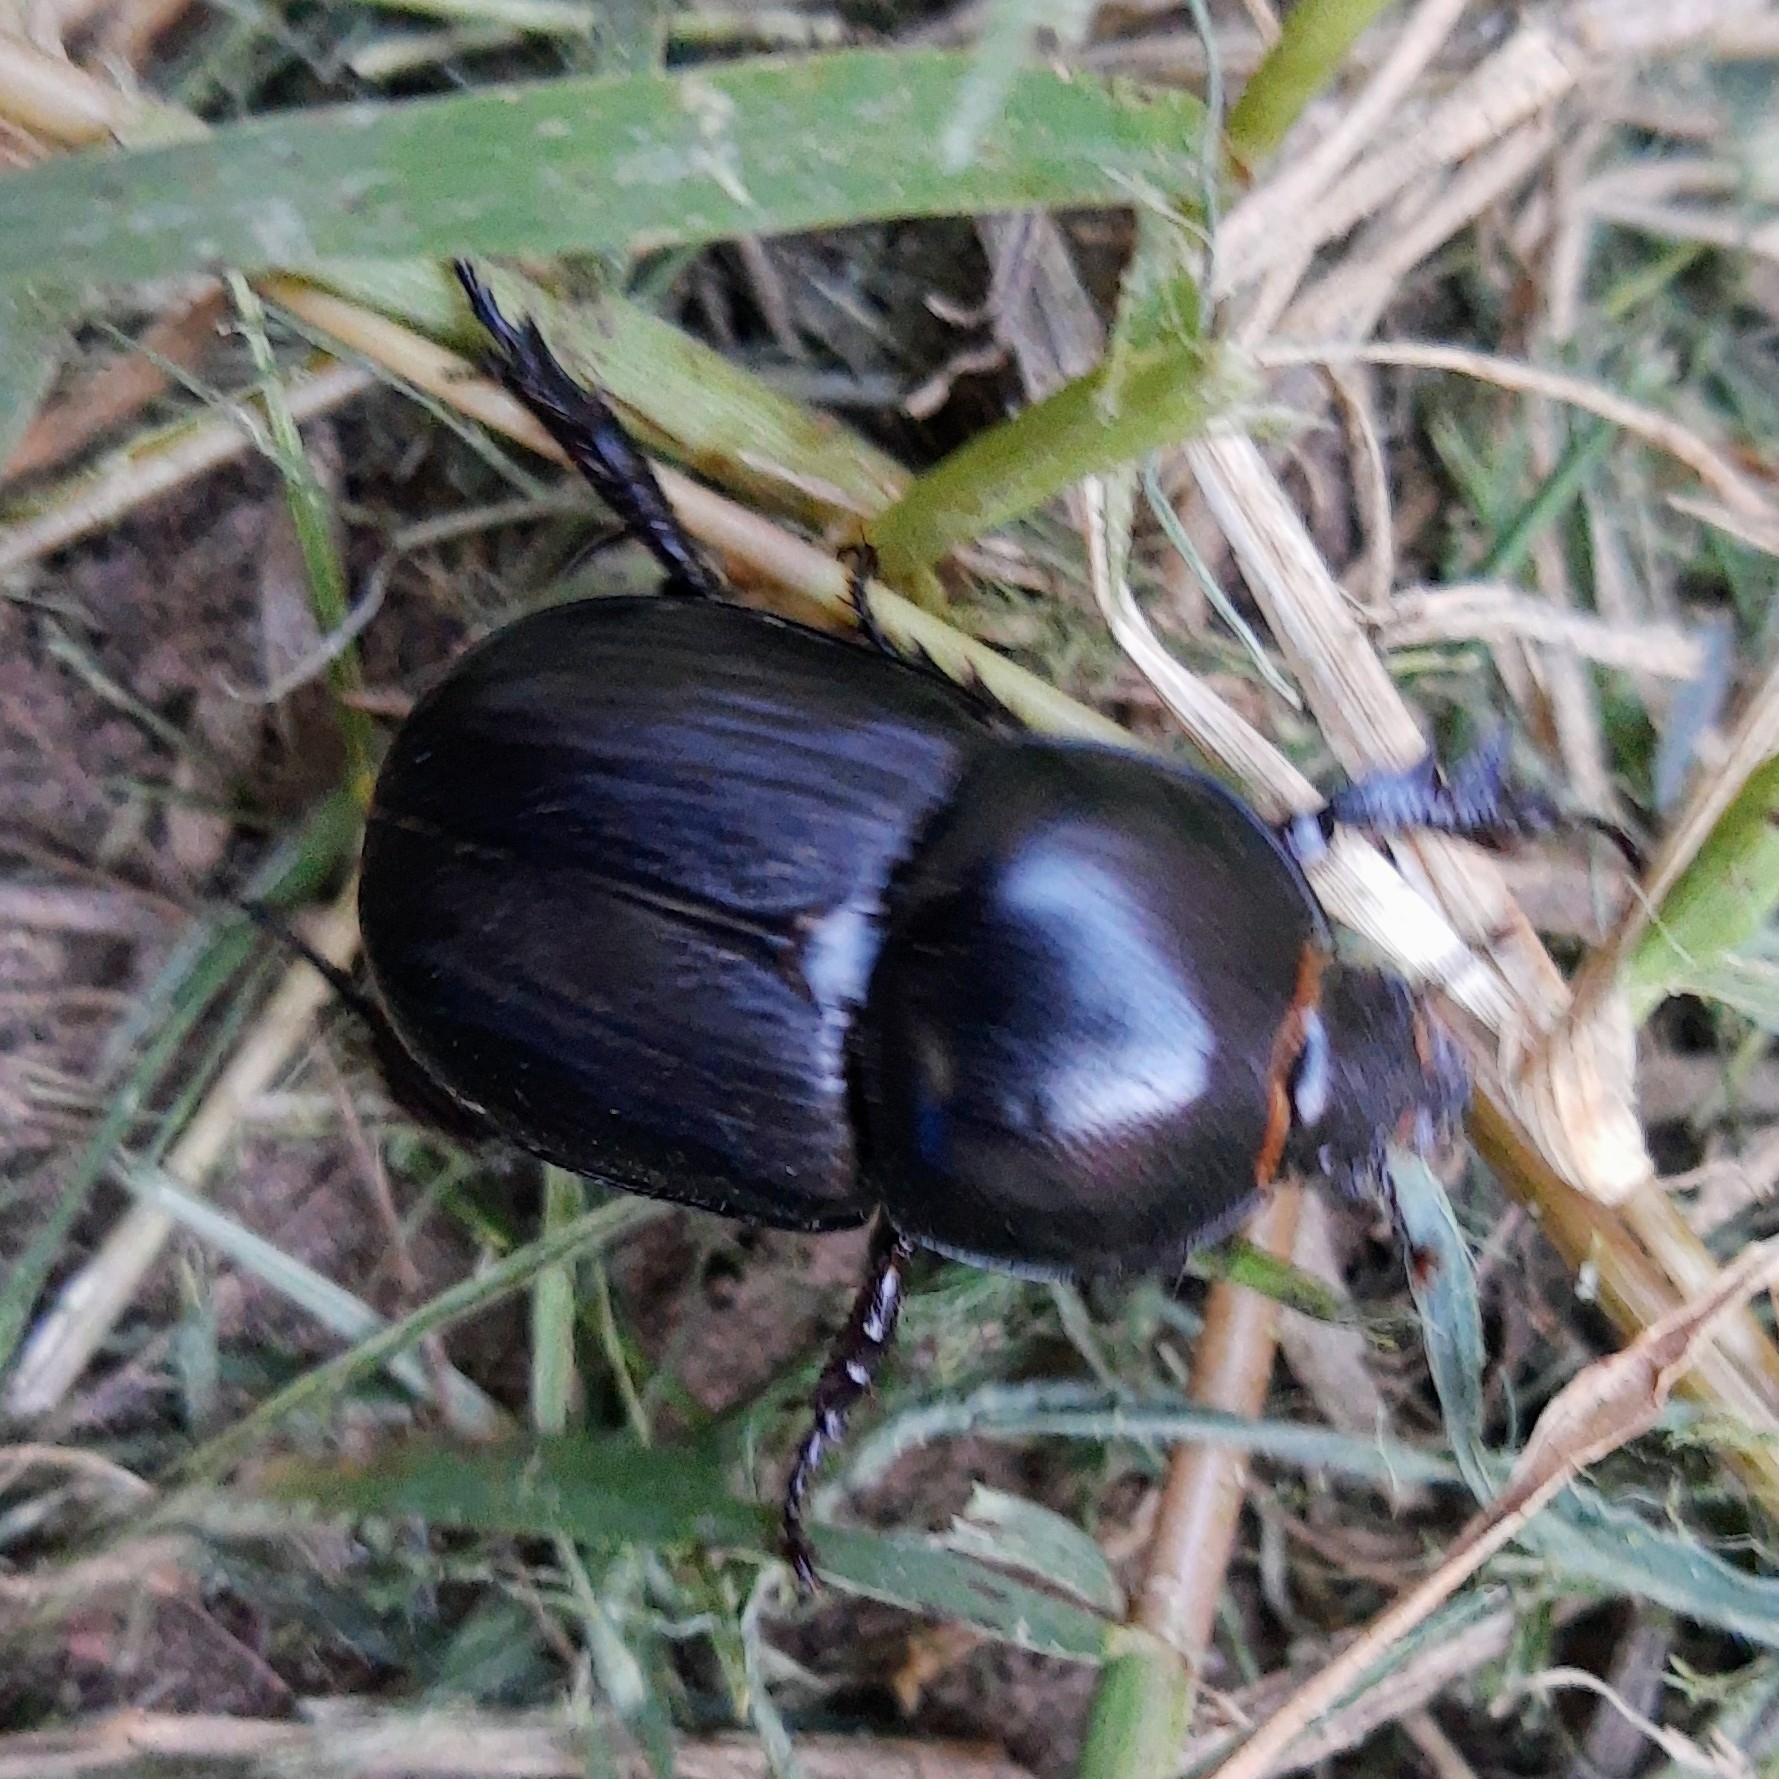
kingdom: Animalia
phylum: Arthropoda
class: Insecta
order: Coleoptera
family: Scarabaeidae
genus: Diloboderus
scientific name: Diloboderus abderus
